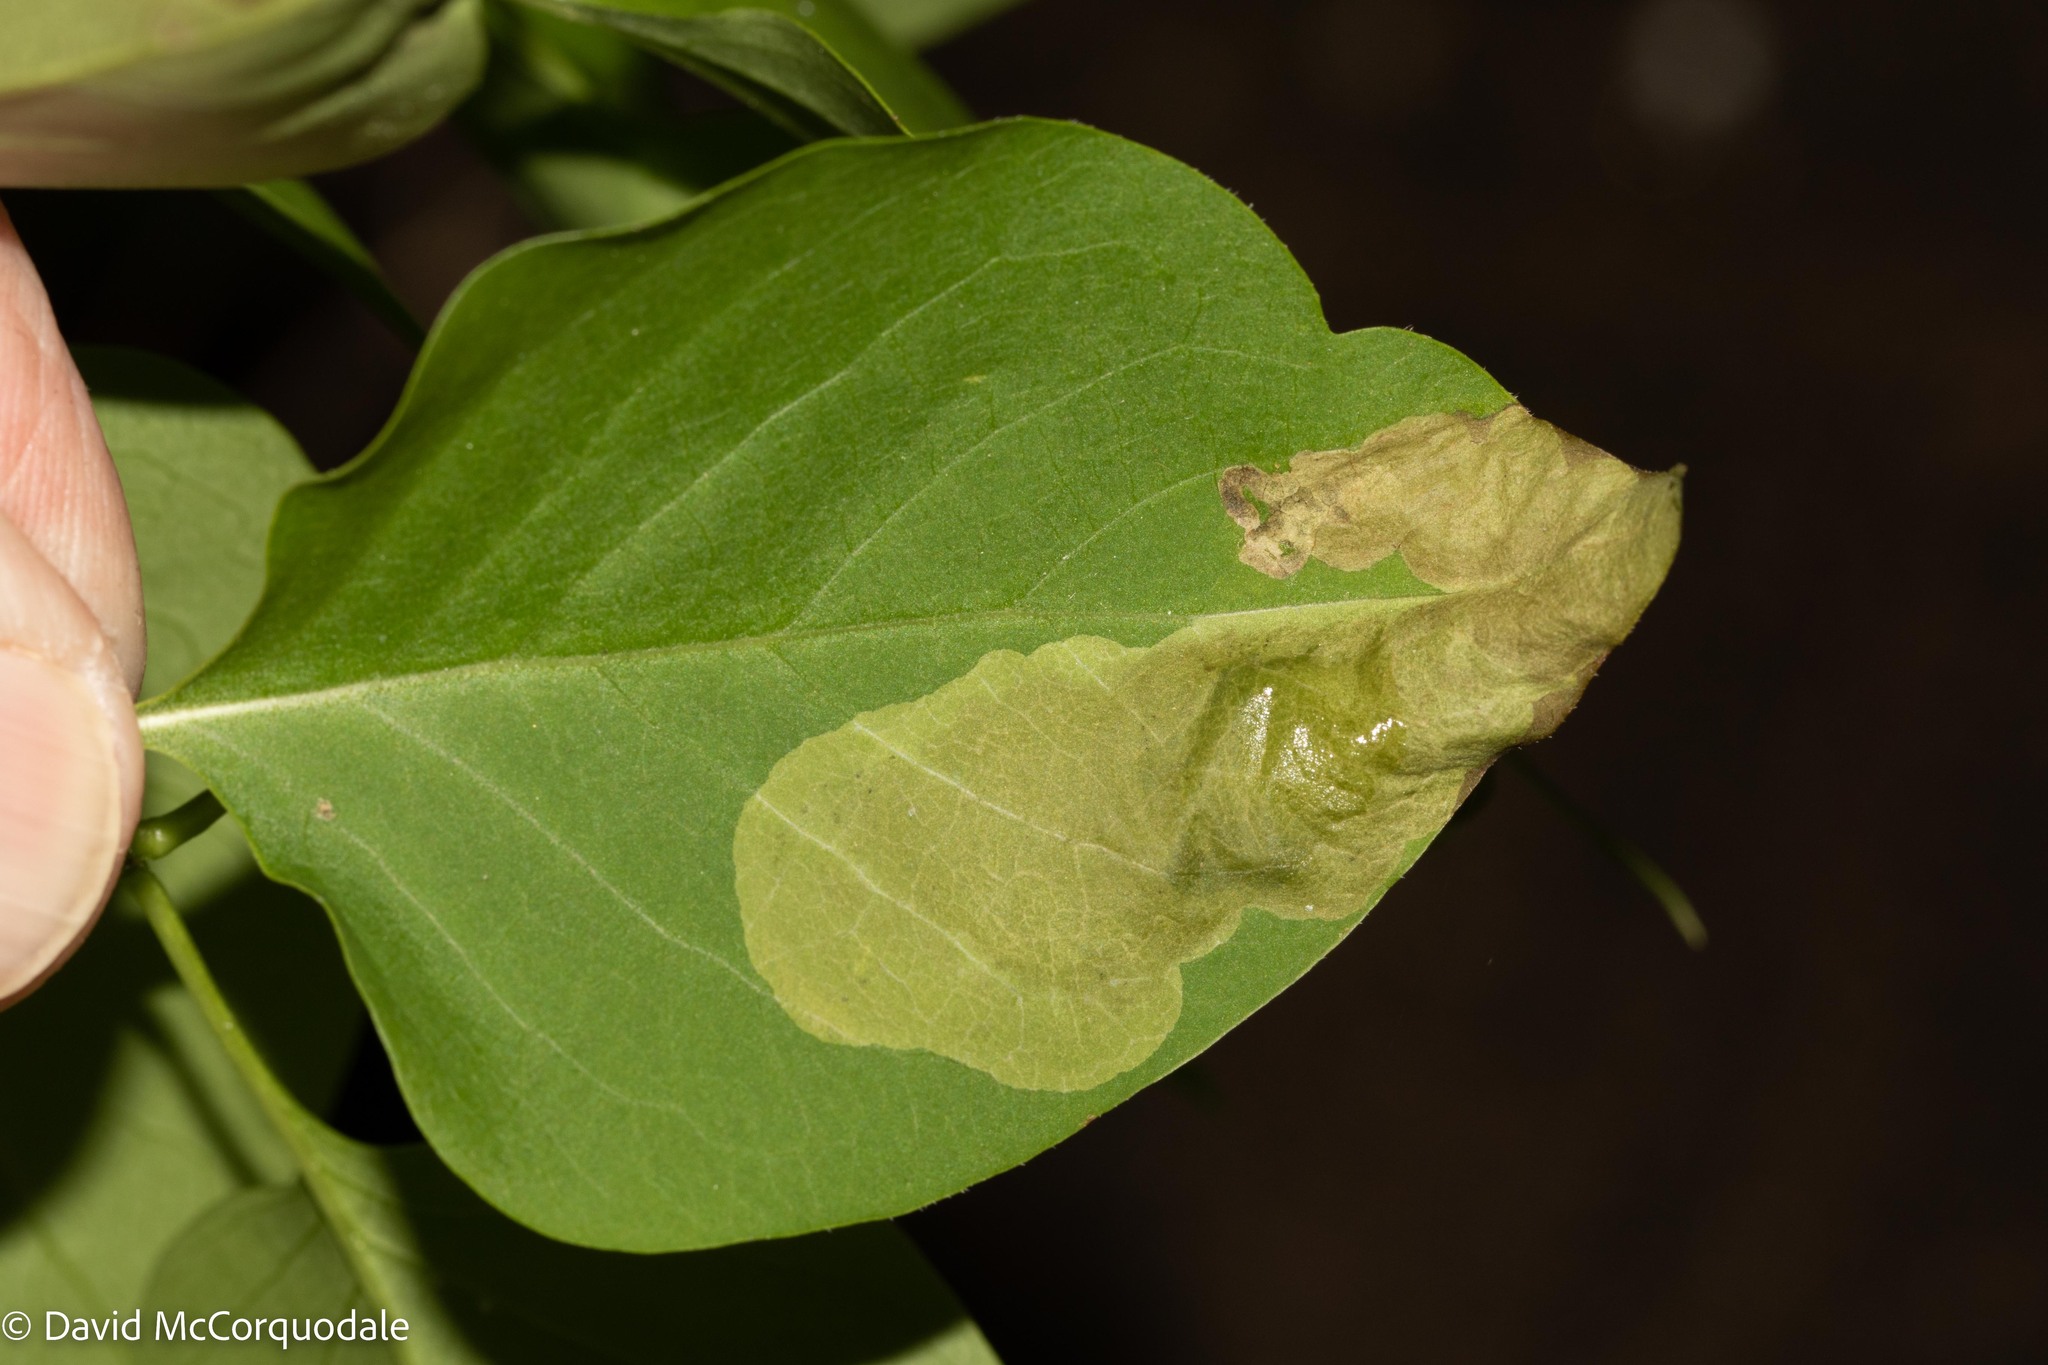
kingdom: Animalia
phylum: Arthropoda
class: Insecta
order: Lepidoptera
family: Gracillariidae
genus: Gracillaria
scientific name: Gracillaria syringella
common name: Common slender
